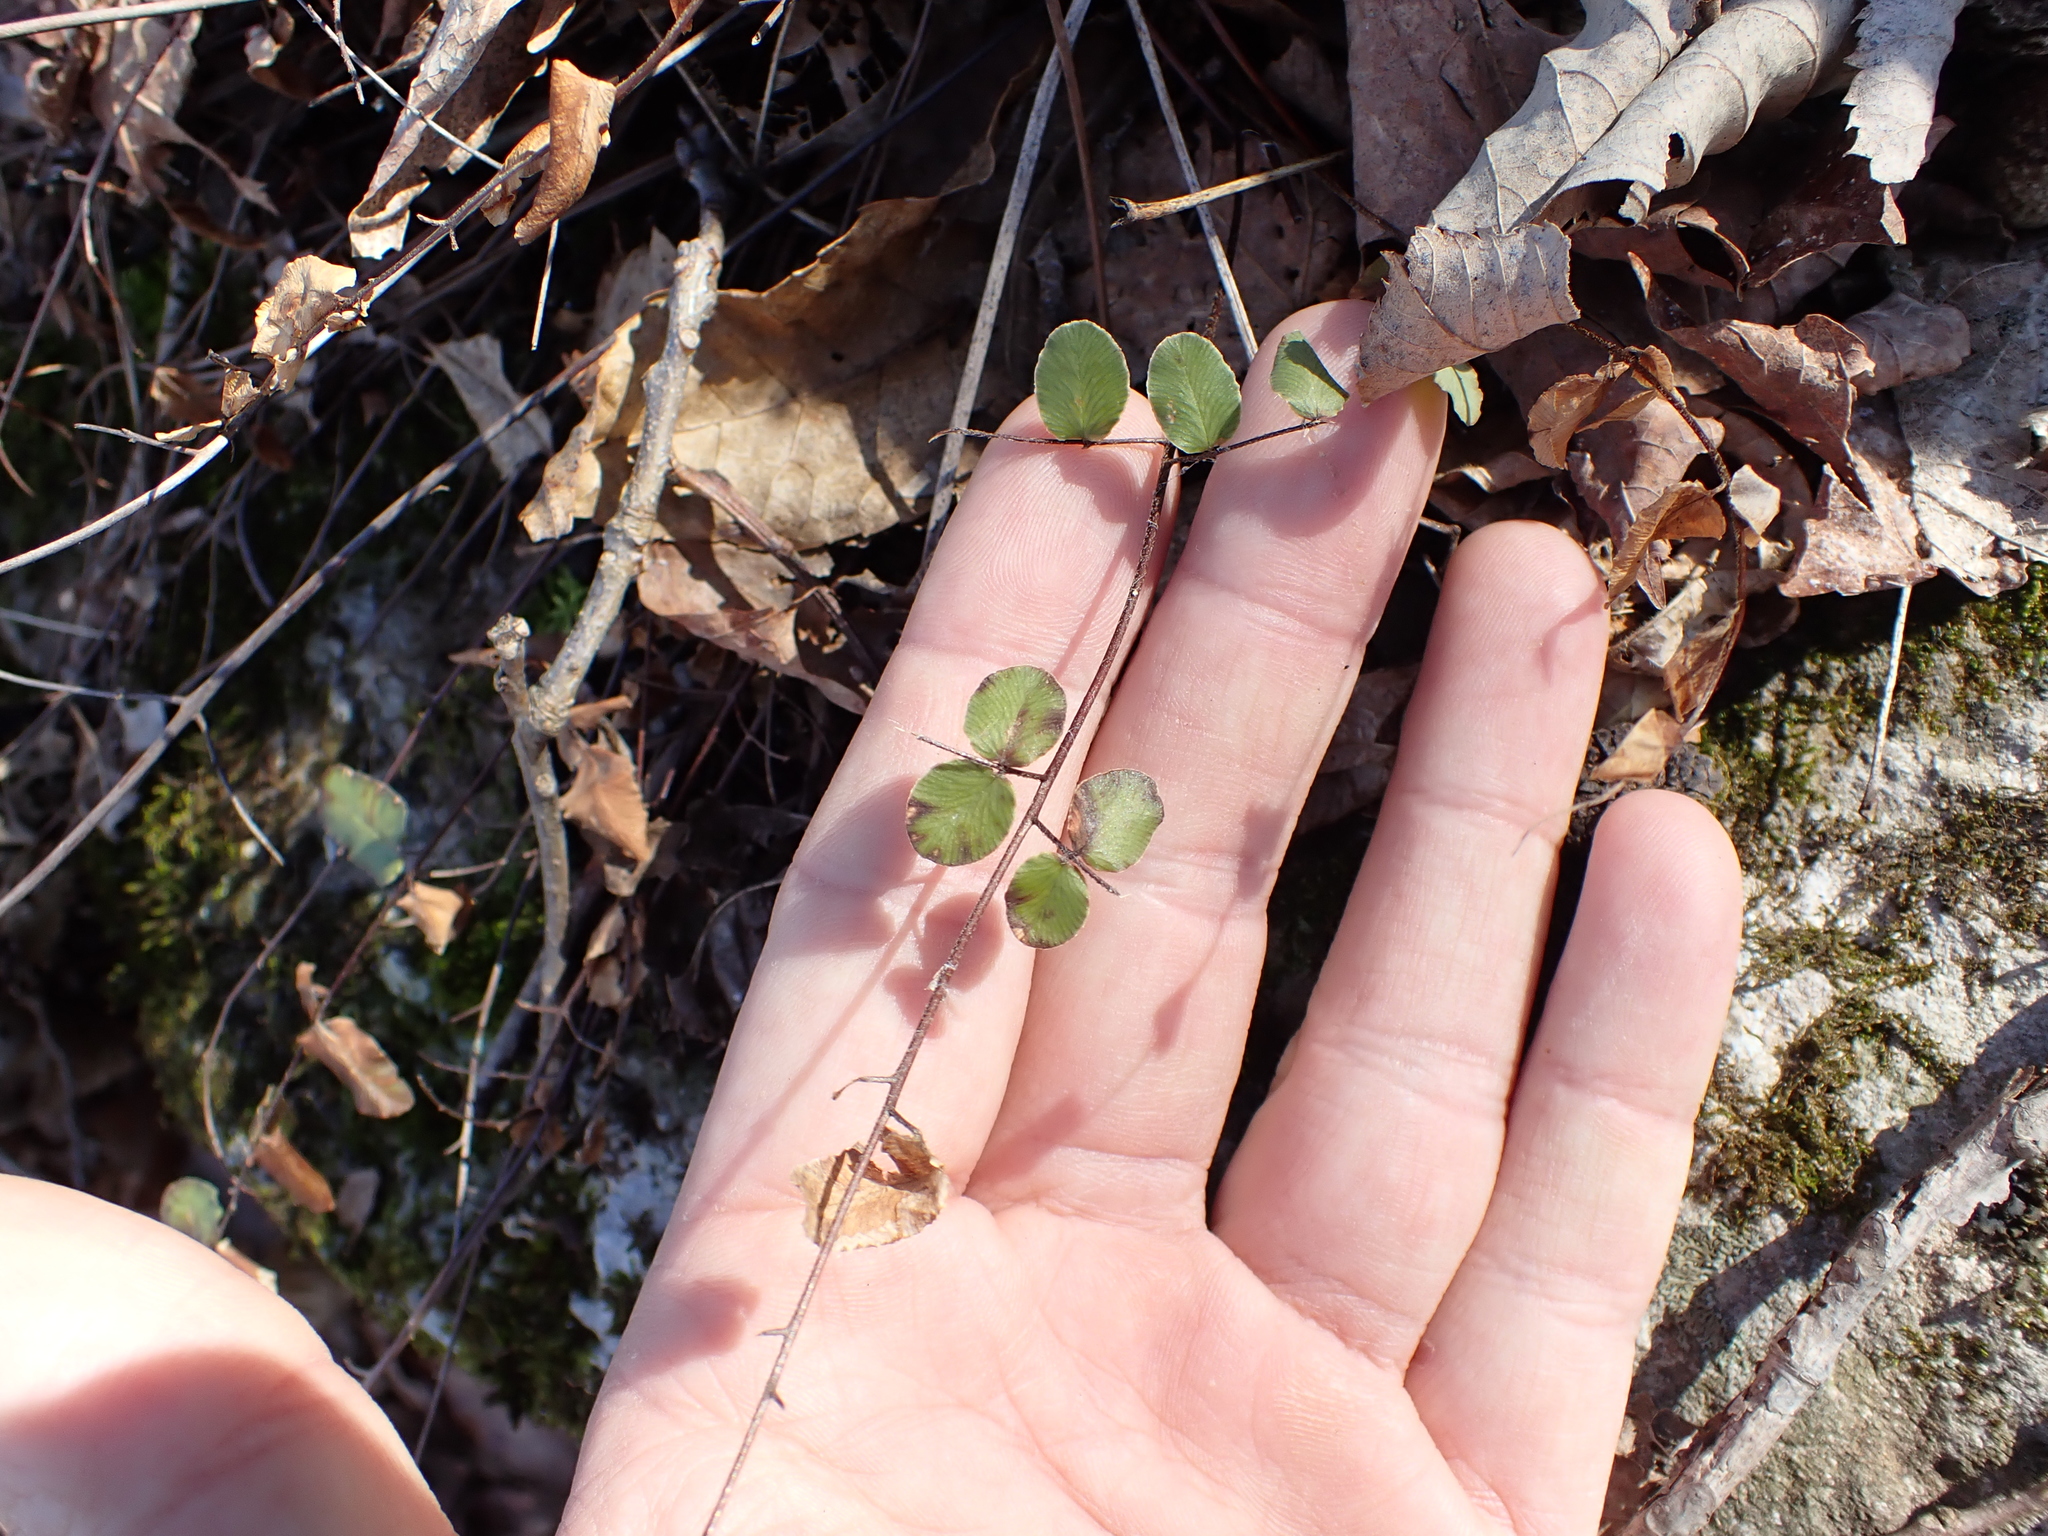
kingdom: Plantae
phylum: Tracheophyta
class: Polypodiopsida
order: Polypodiales
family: Pteridaceae
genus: Pellaea
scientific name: Pellaea atropurpurea
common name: Hairy cliffbrake
